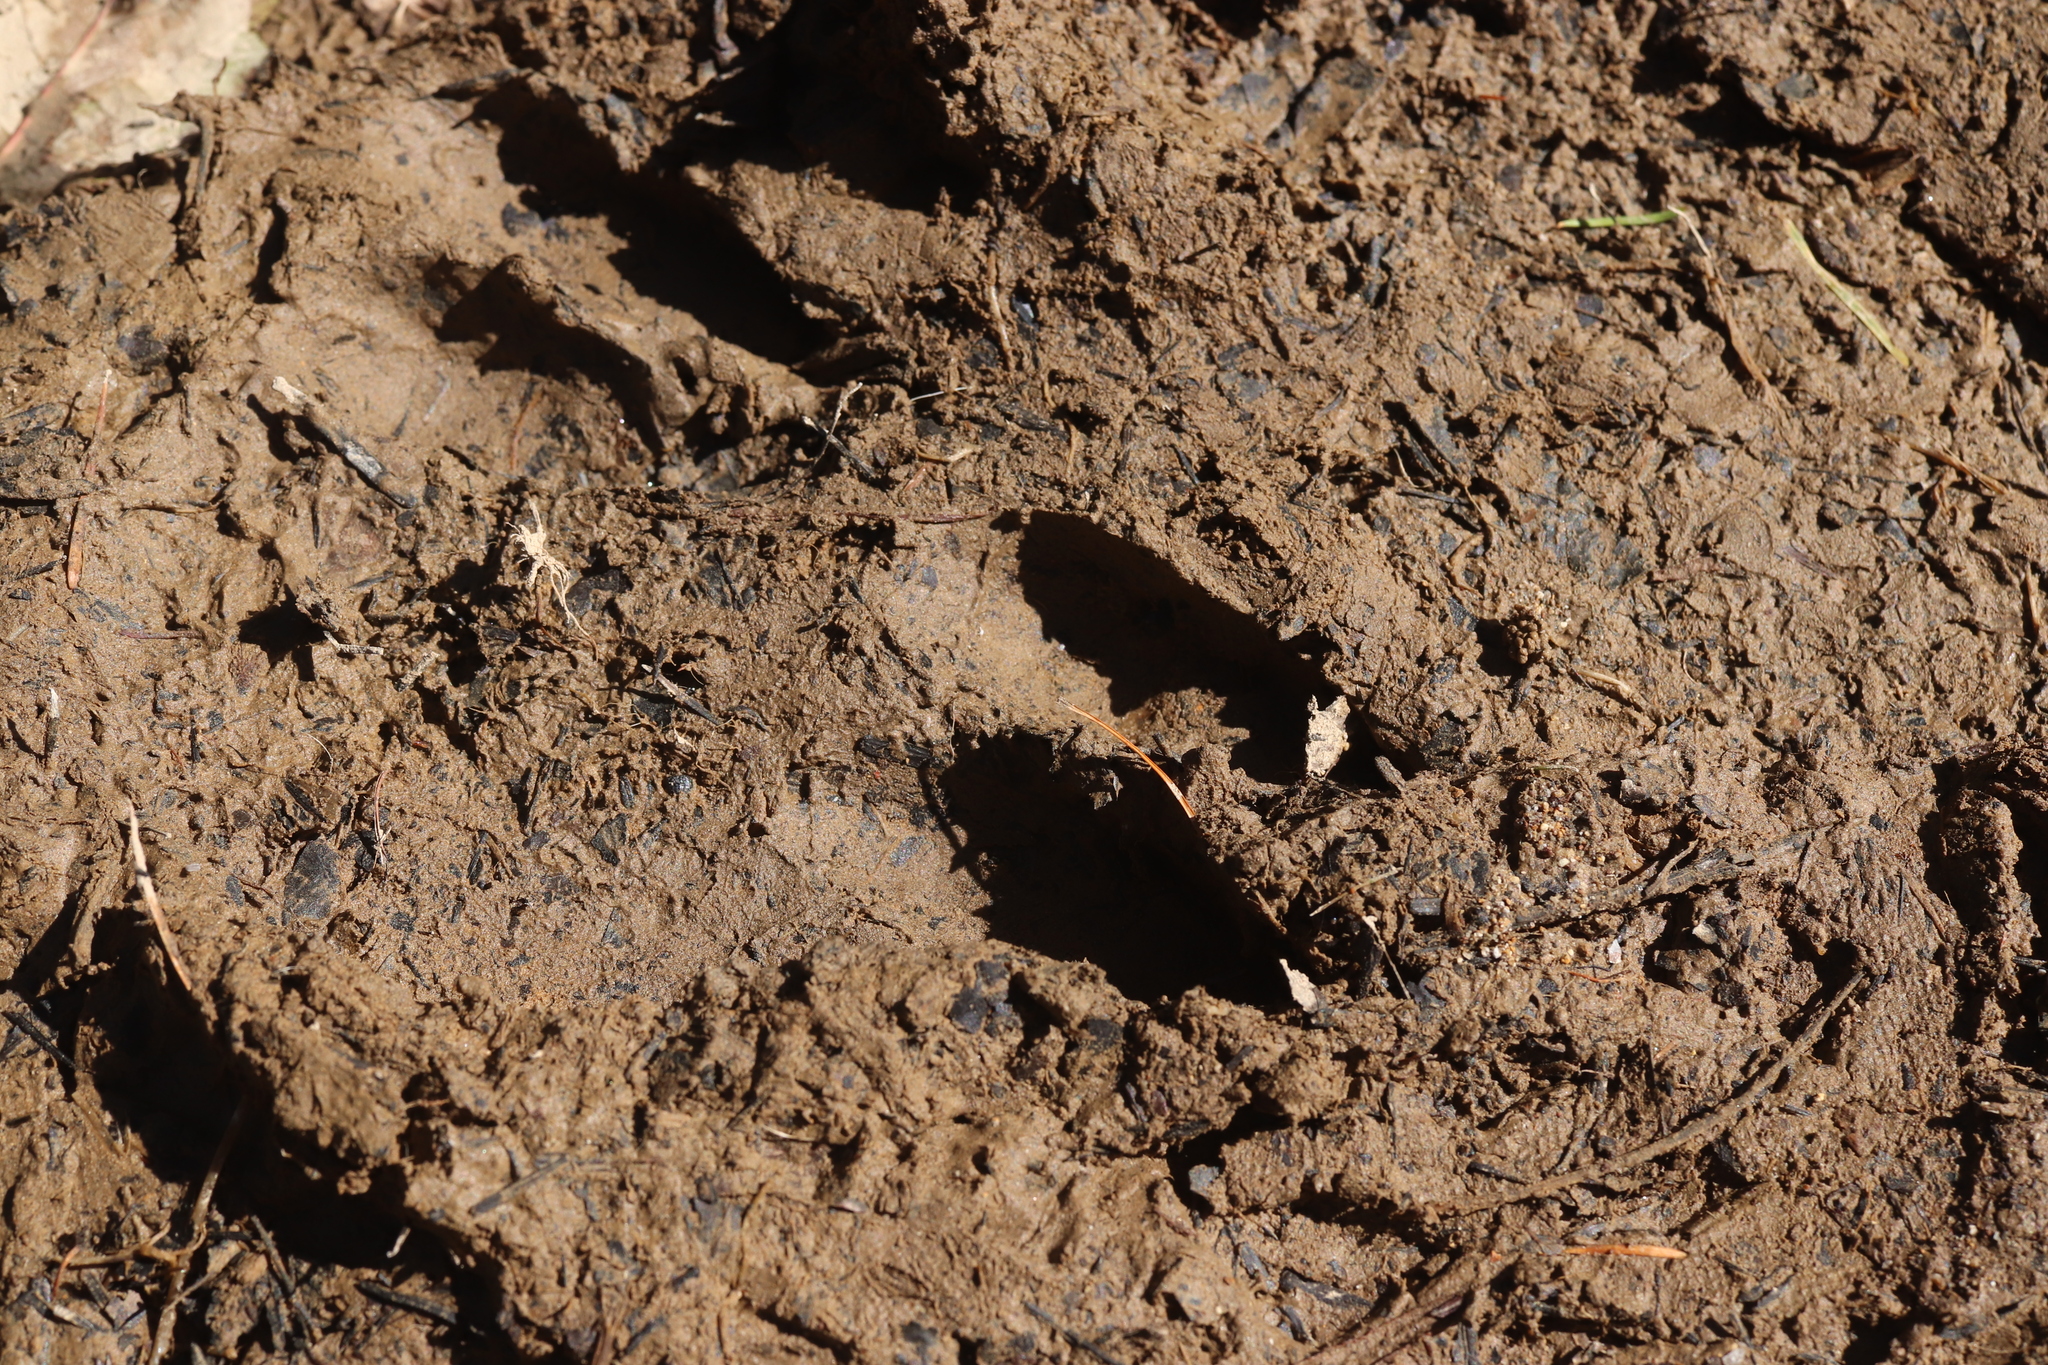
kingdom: Animalia
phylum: Chordata
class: Mammalia
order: Artiodactyla
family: Cervidae
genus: Cervus
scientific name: Cervus nippon
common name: Sika deer
